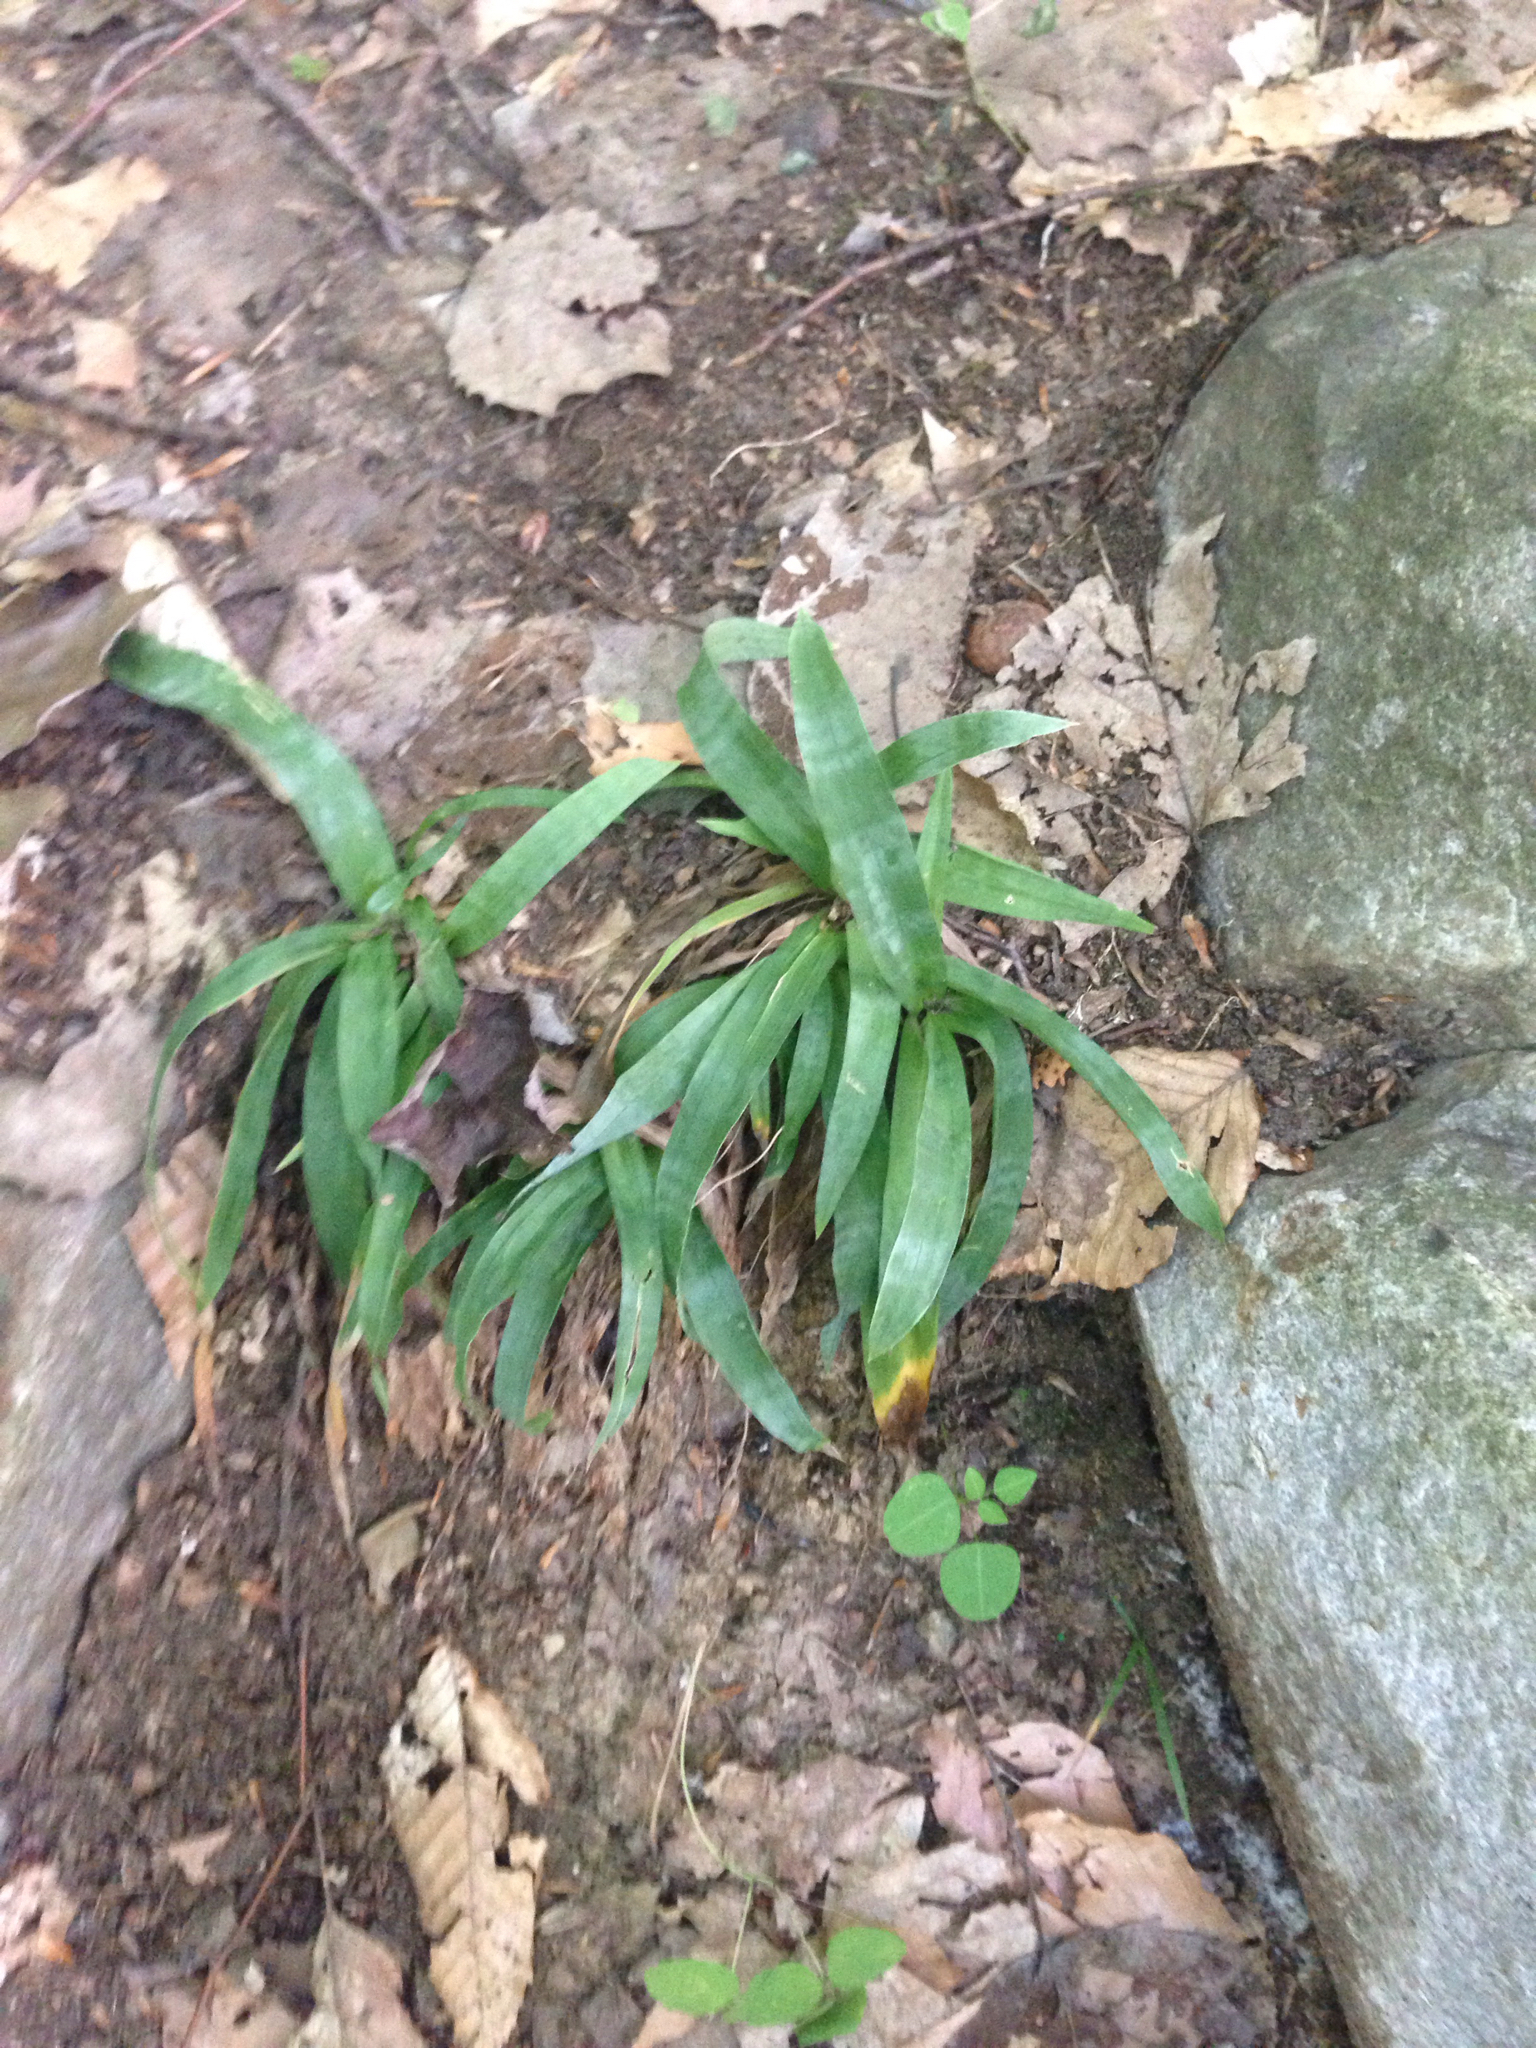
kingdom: Plantae
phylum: Tracheophyta
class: Liliopsida
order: Poales
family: Cyperaceae
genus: Carex
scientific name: Carex platyphylla
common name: Broad-leaved sedge
